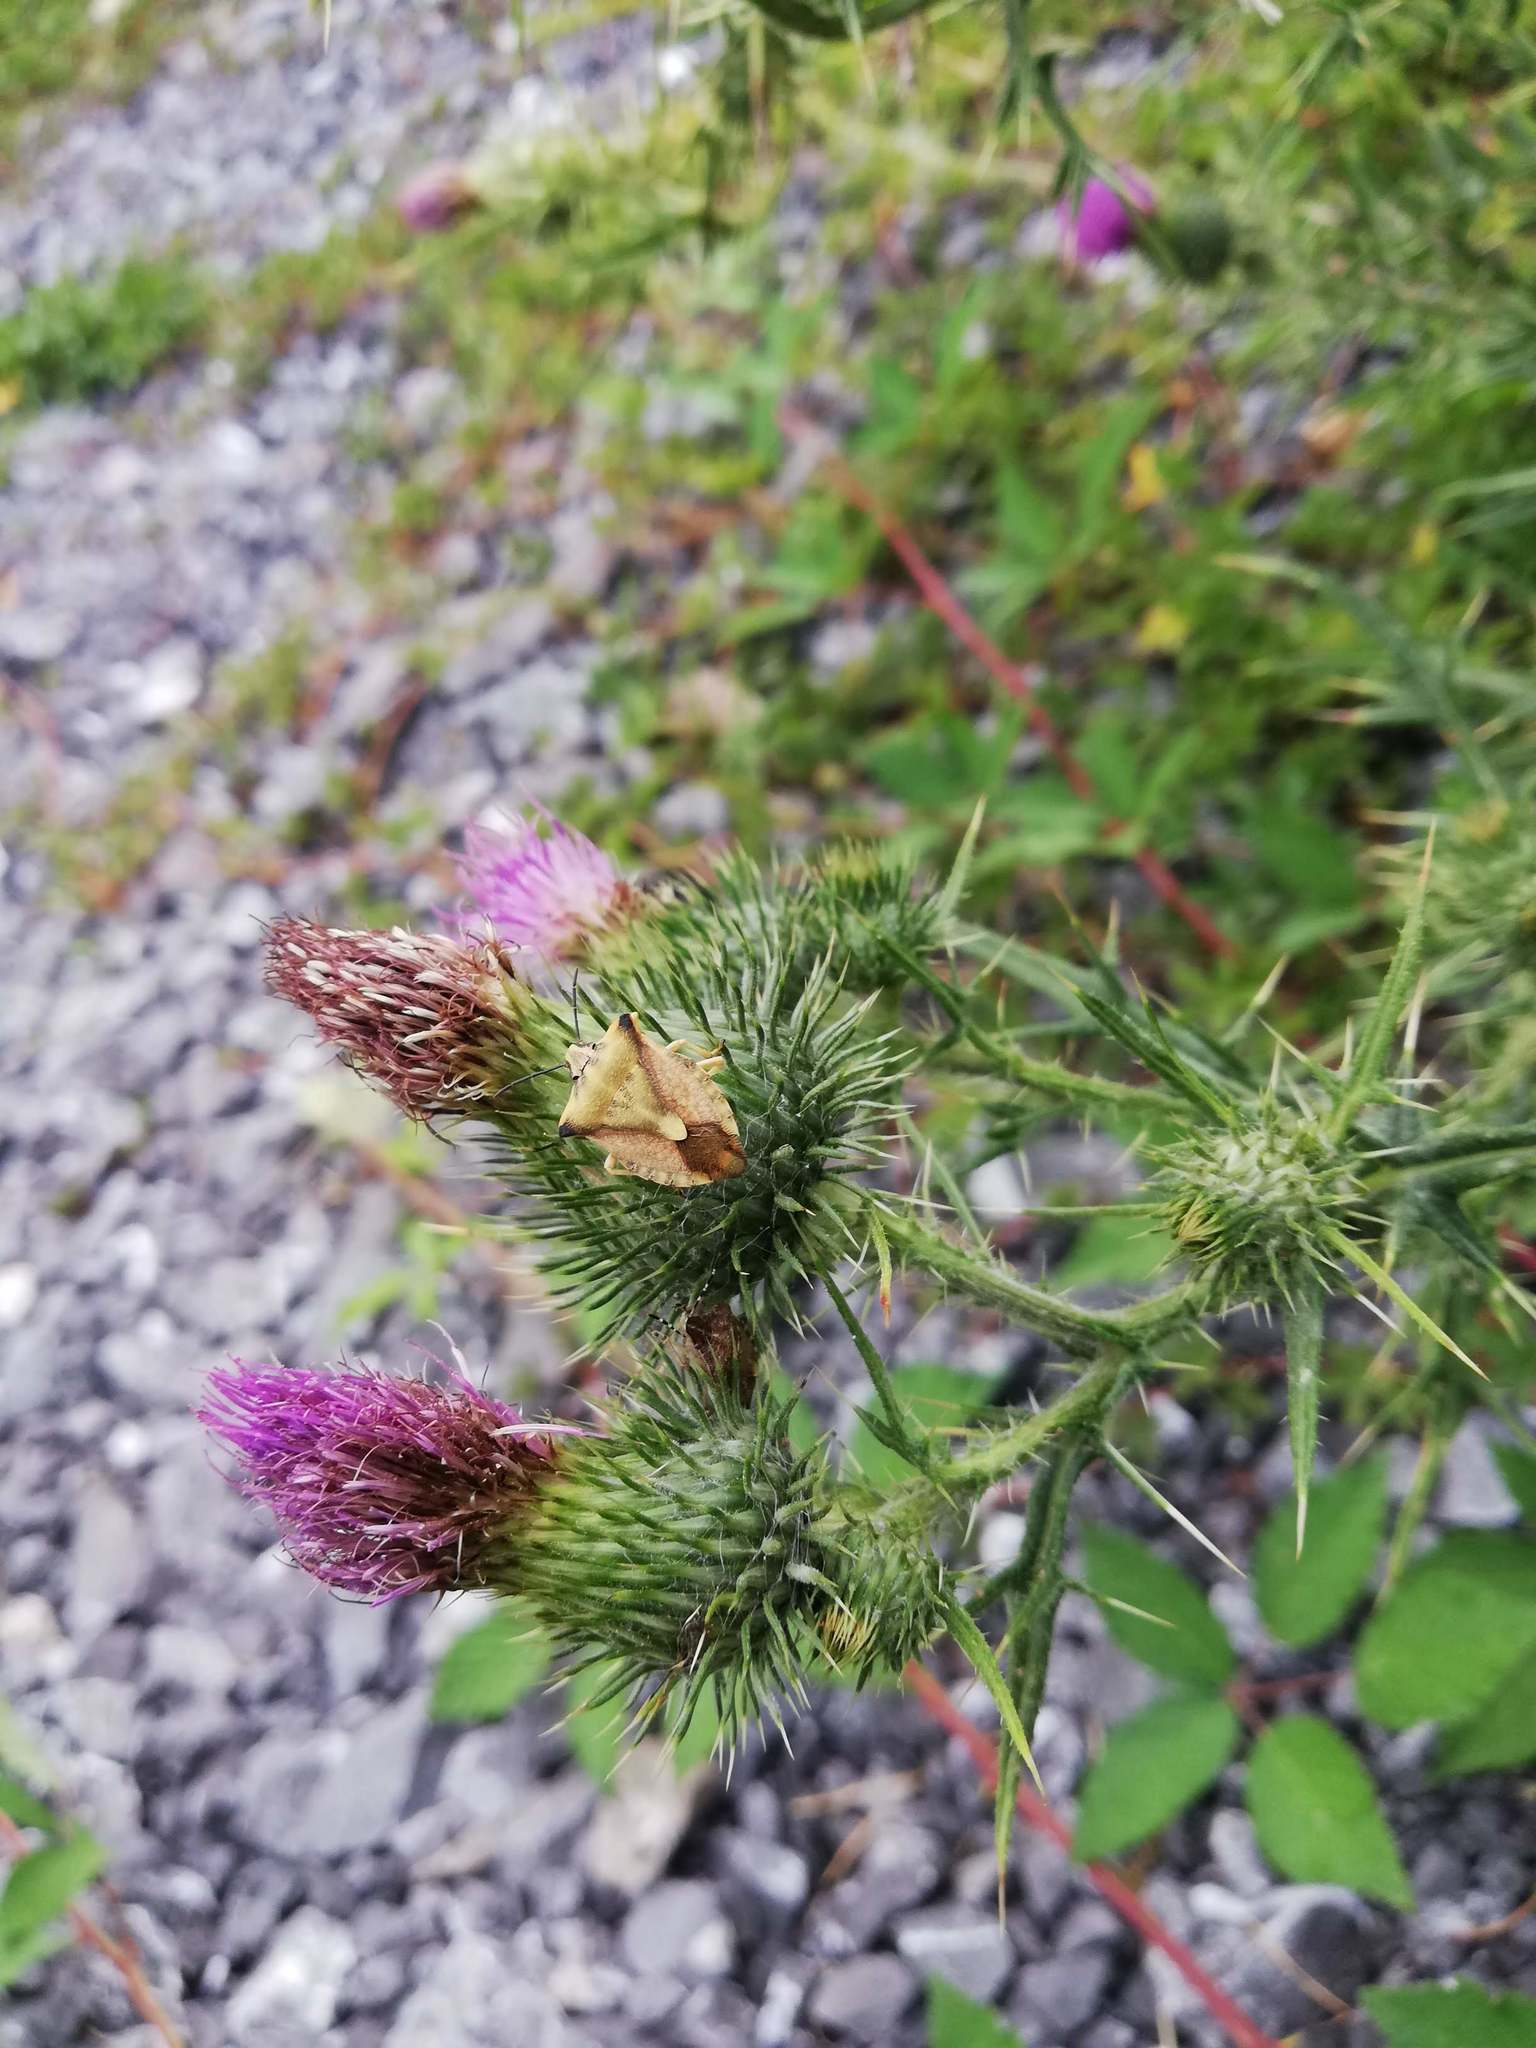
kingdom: Animalia
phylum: Arthropoda
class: Insecta
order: Hemiptera
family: Pentatomidae
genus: Carpocoris
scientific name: Carpocoris fuscispinus
